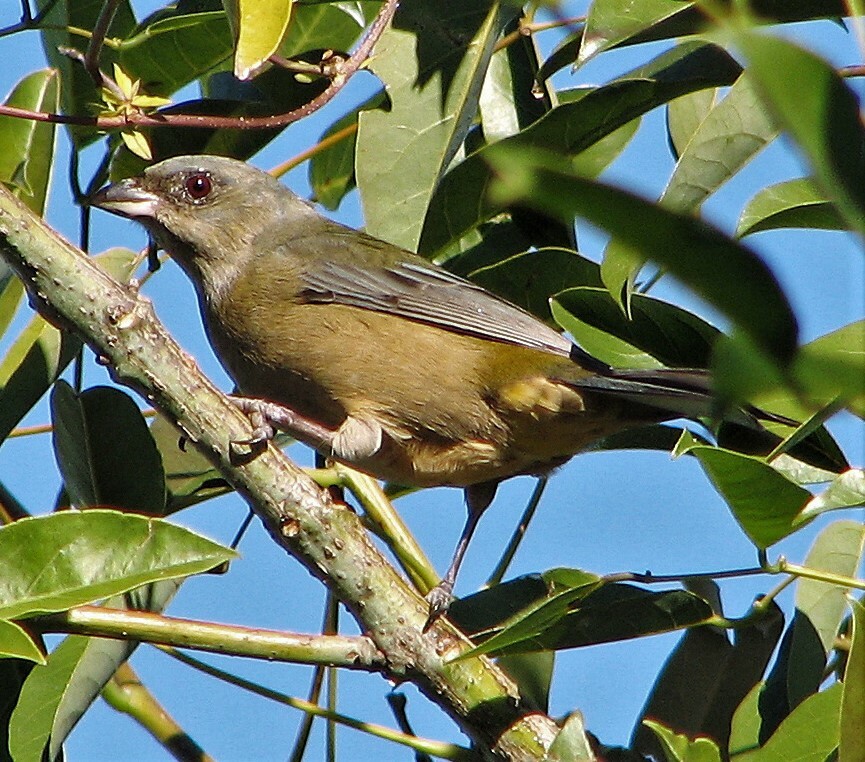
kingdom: Animalia
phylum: Chordata
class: Aves
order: Passeriformes
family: Thraupidae
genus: Rauenia
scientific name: Rauenia bonariensis
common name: Blue-and-yellow tanager
